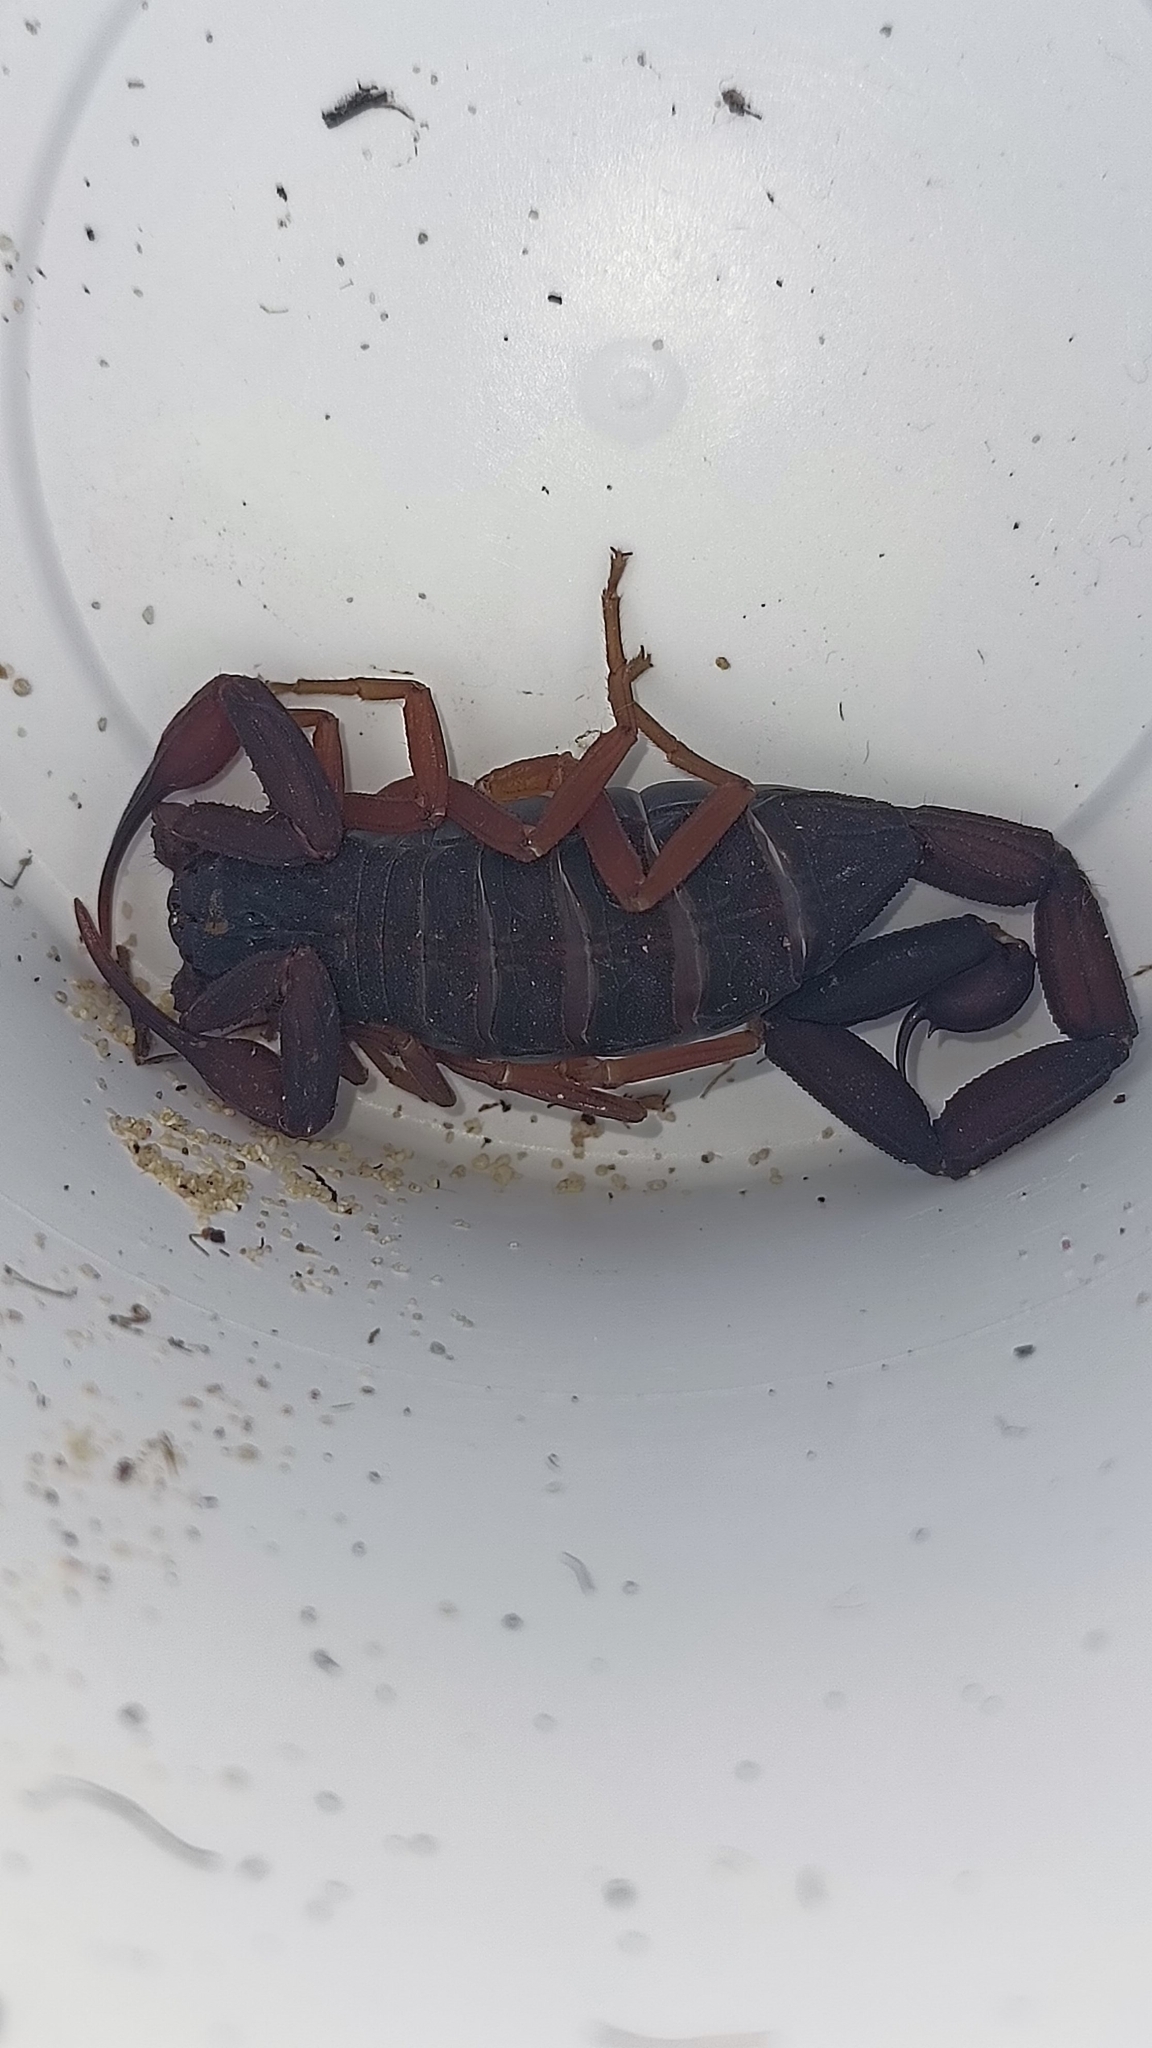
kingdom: Animalia
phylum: Arthropoda
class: Arachnida
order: Scorpiones
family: Buthidae
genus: Centruroides
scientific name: Centruroides gracilis
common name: Scorpions
